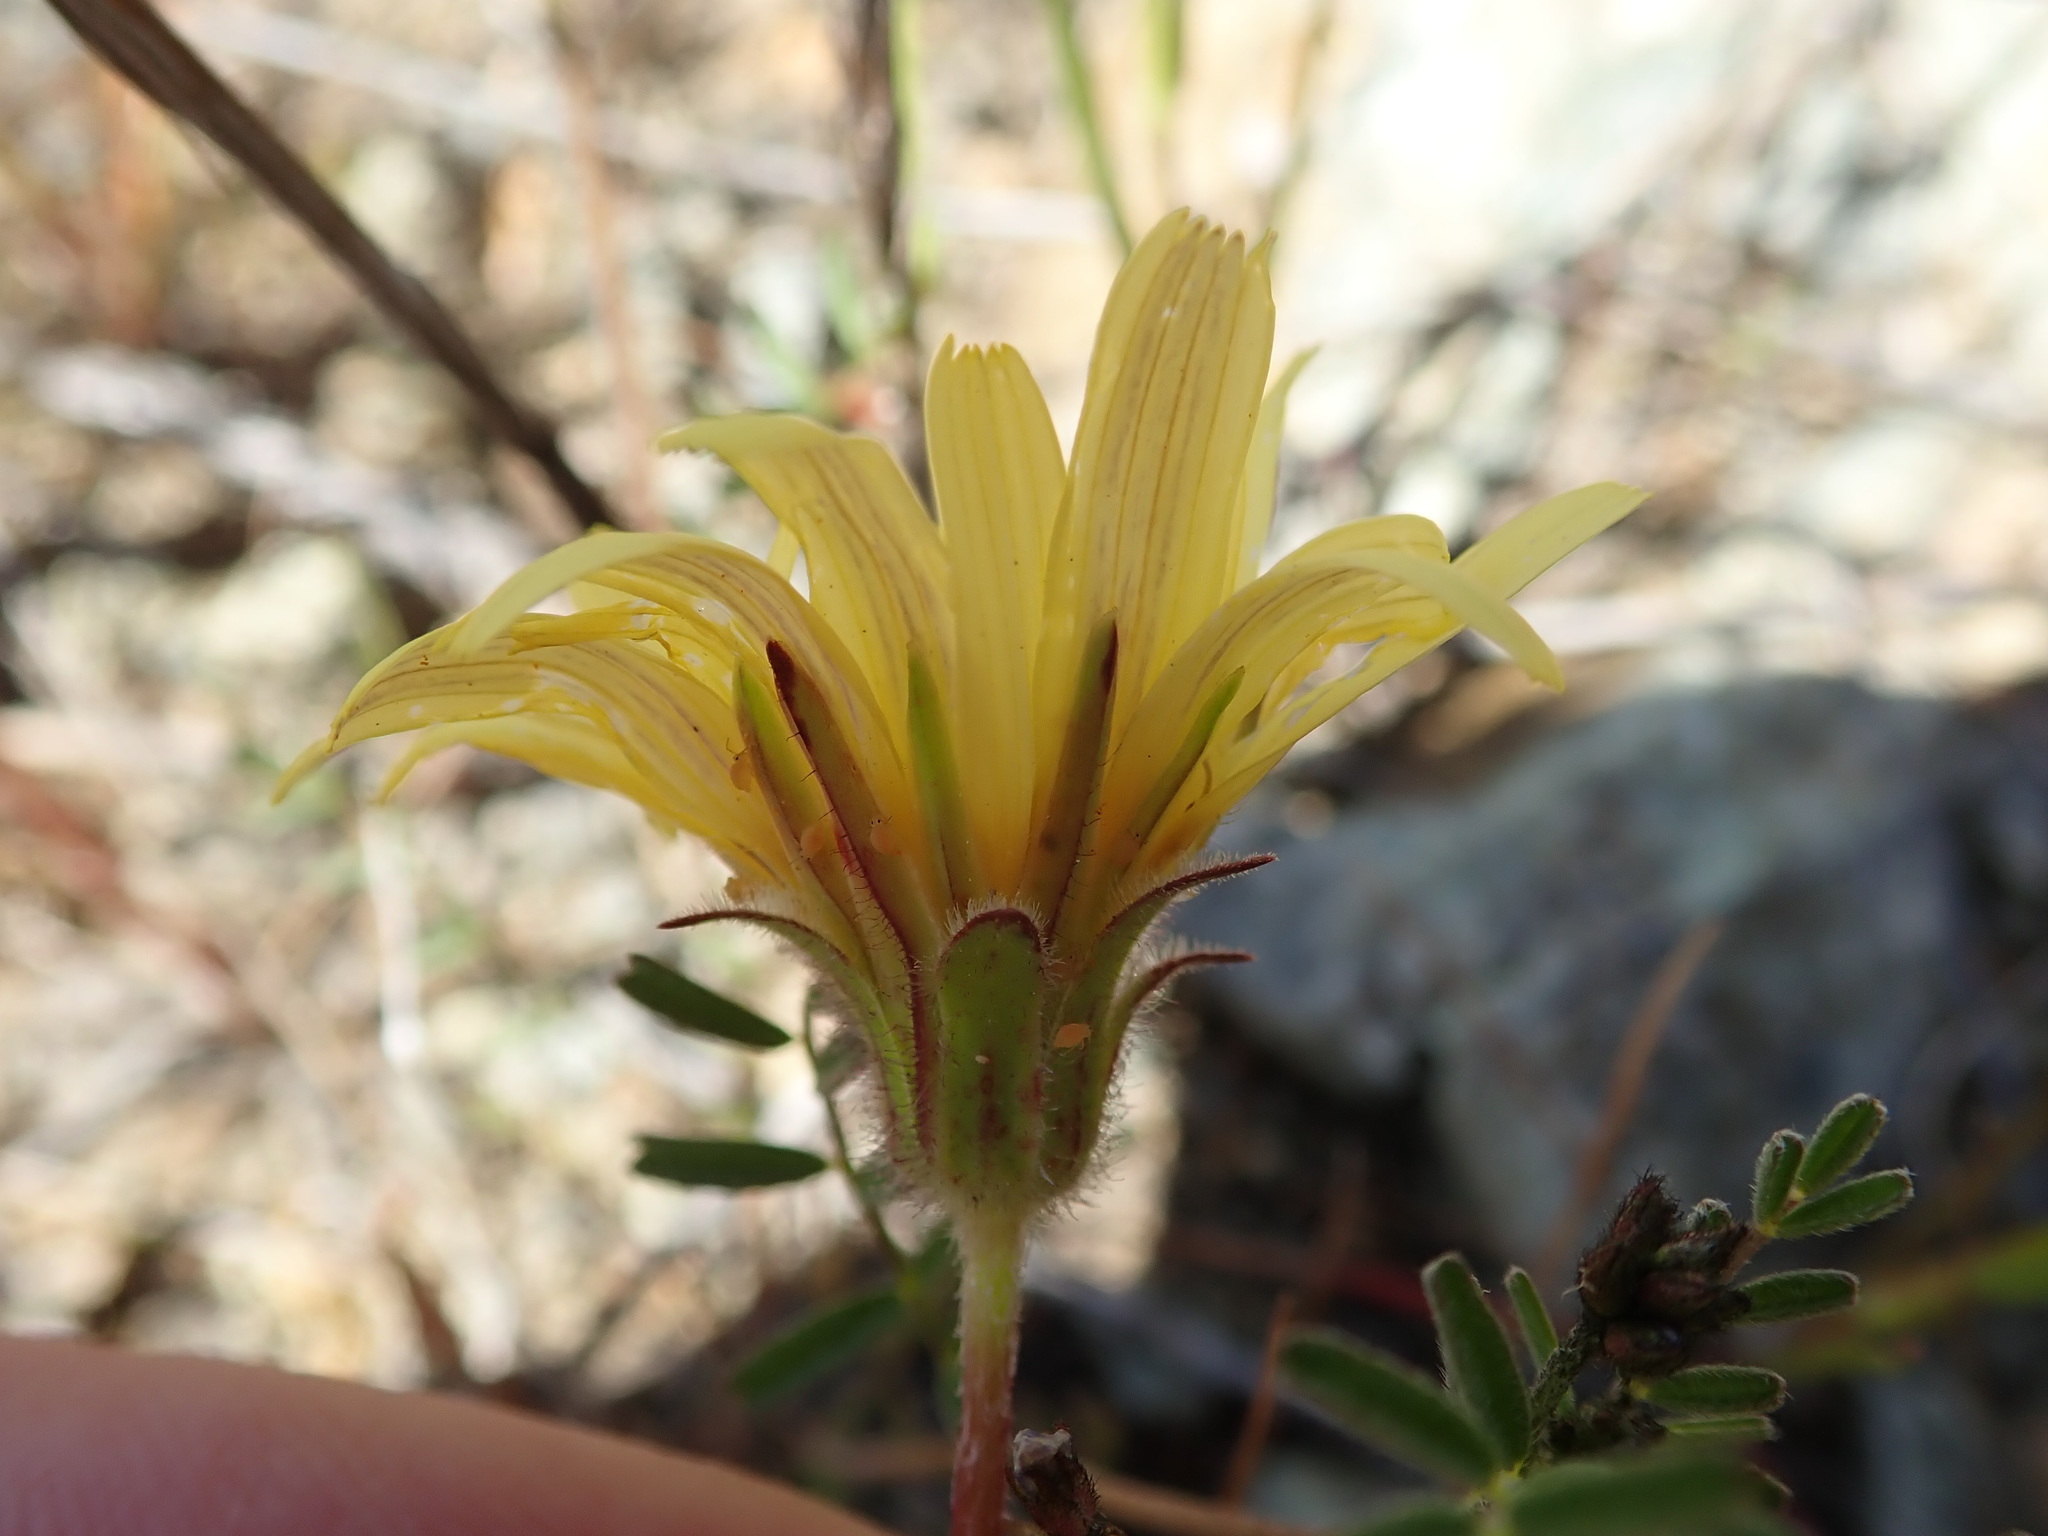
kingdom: Plantae
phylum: Tracheophyta
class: Magnoliopsida
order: Asterales
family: Asteraceae
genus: Agoseris
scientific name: Agoseris heterophylla
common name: Annual agoseris
